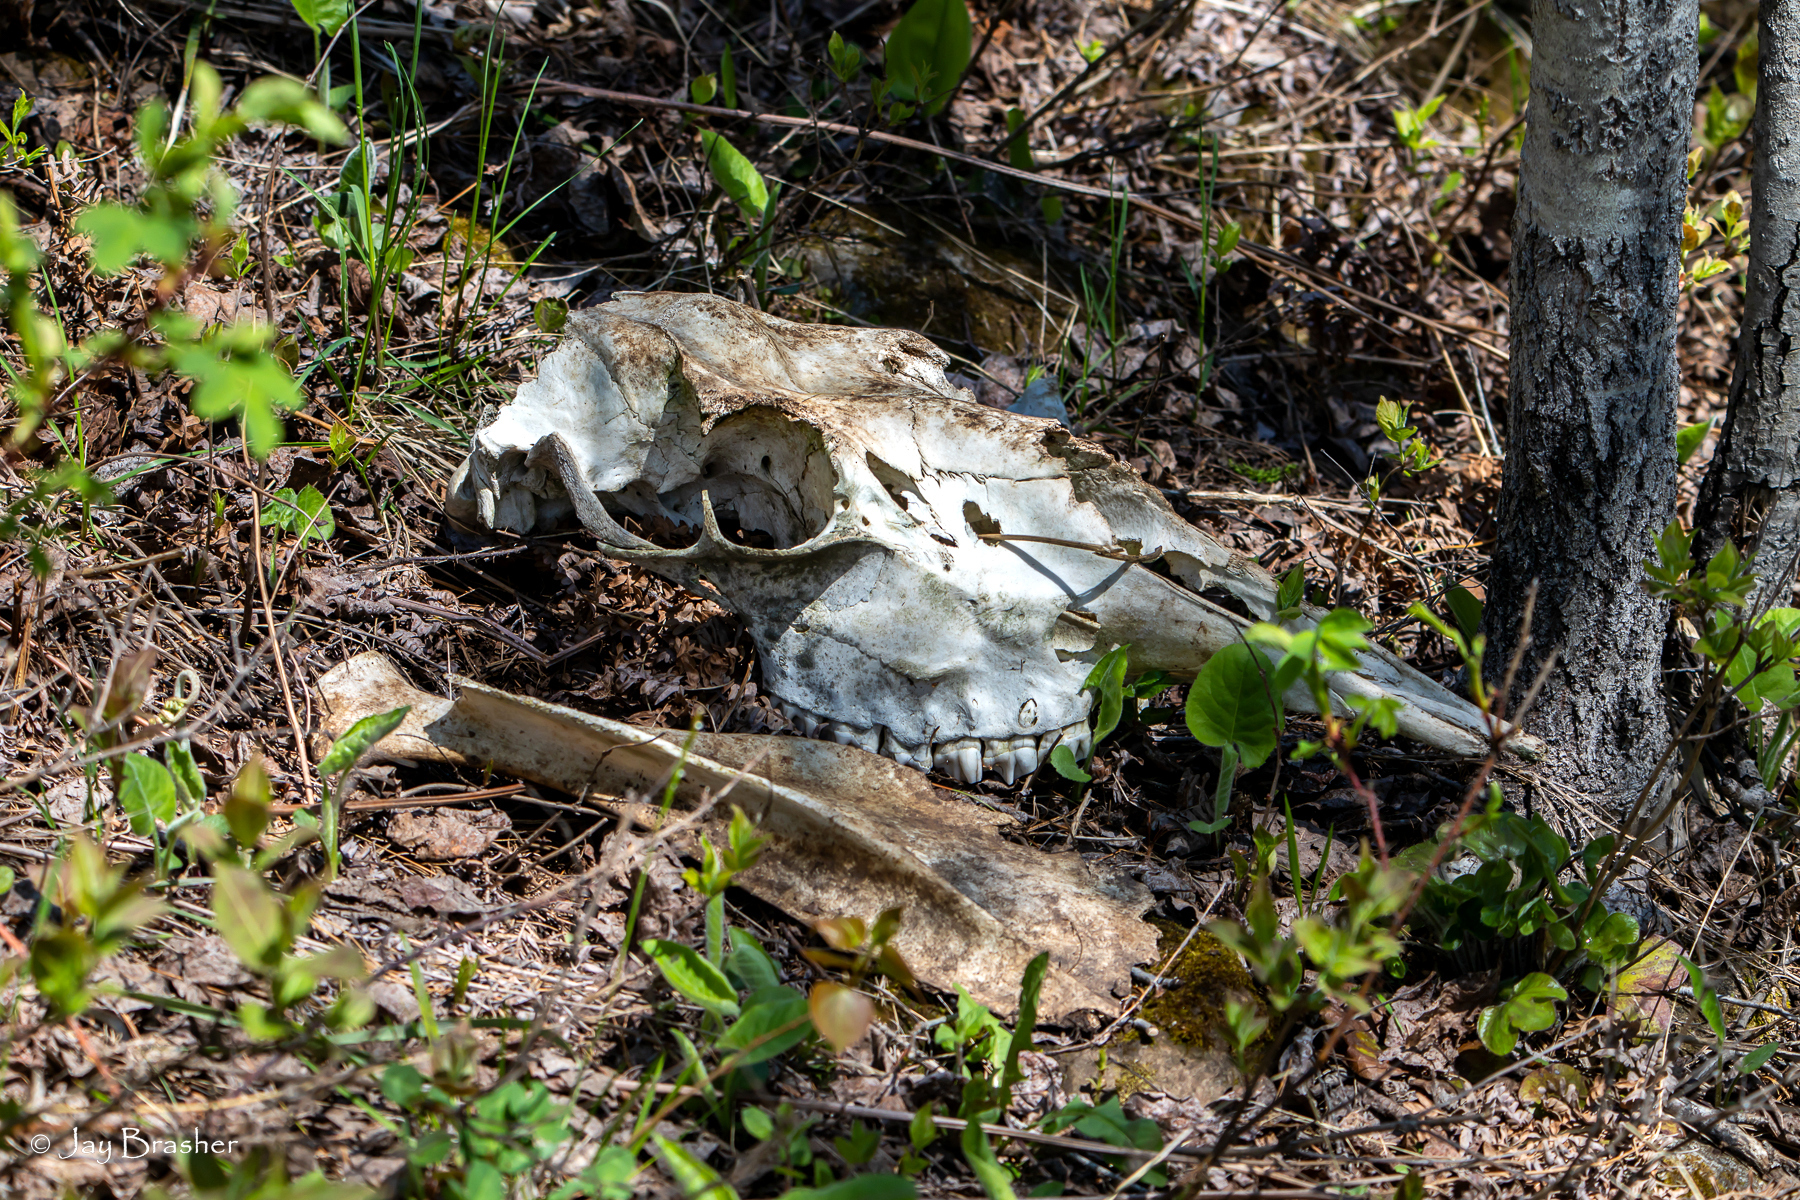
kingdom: Animalia
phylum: Chordata
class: Mammalia
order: Artiodactyla
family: Cervidae
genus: Alces
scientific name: Alces americanus
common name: Moose
